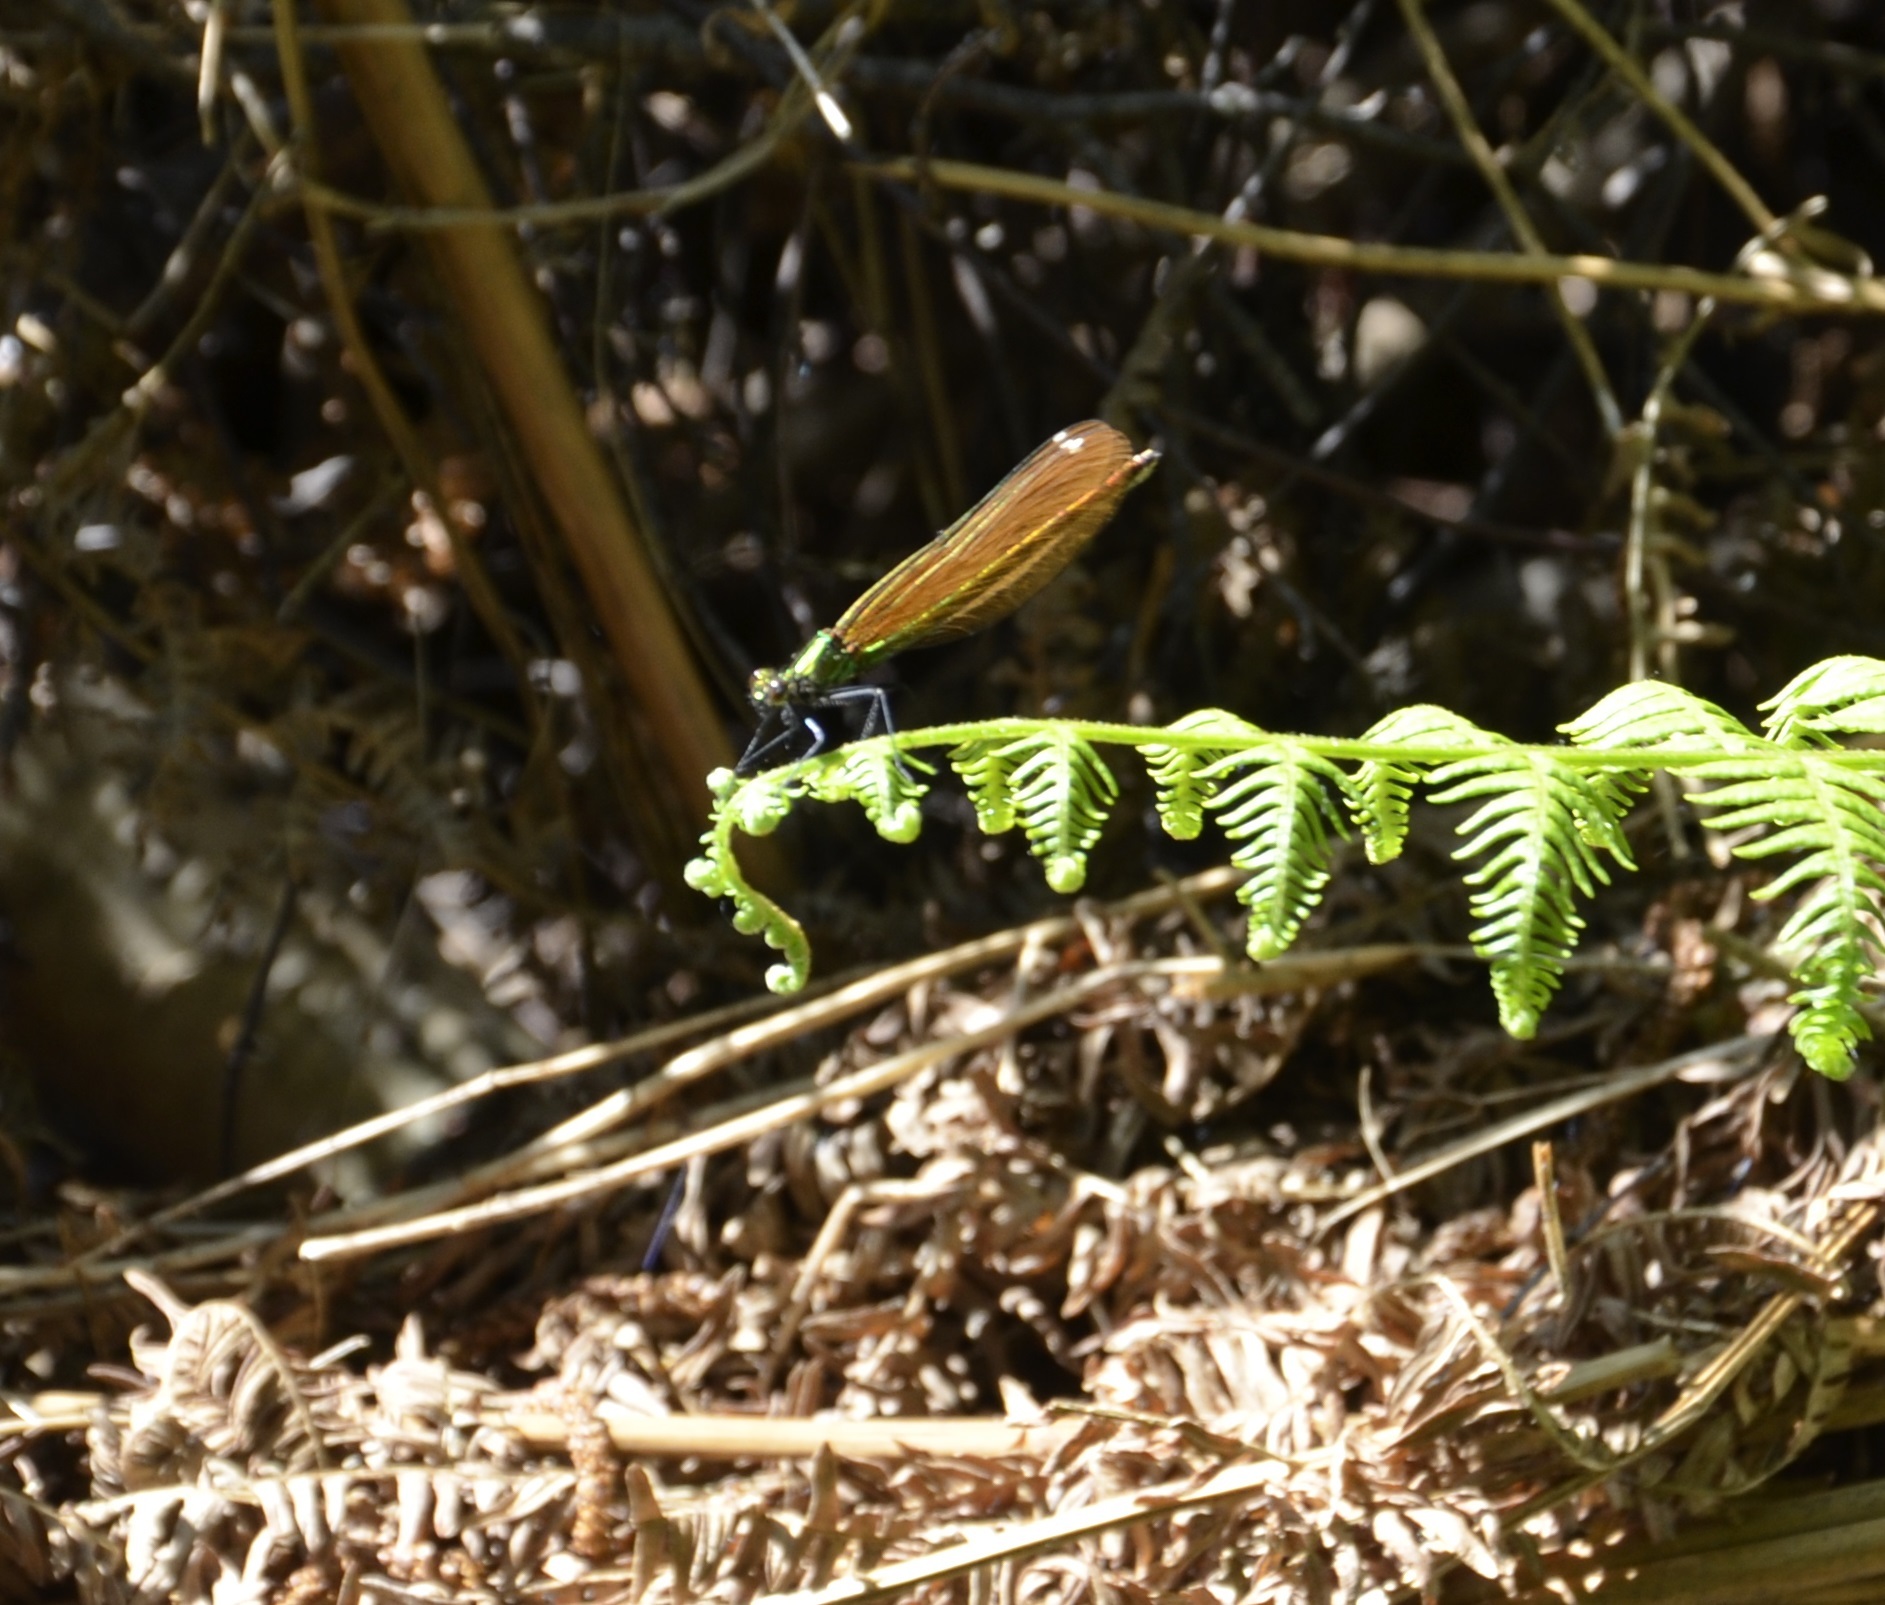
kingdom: Animalia
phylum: Arthropoda
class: Insecta
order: Odonata
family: Calopterygidae
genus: Calopteryx
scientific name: Calopteryx virgo
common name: Beautiful demoiselle
